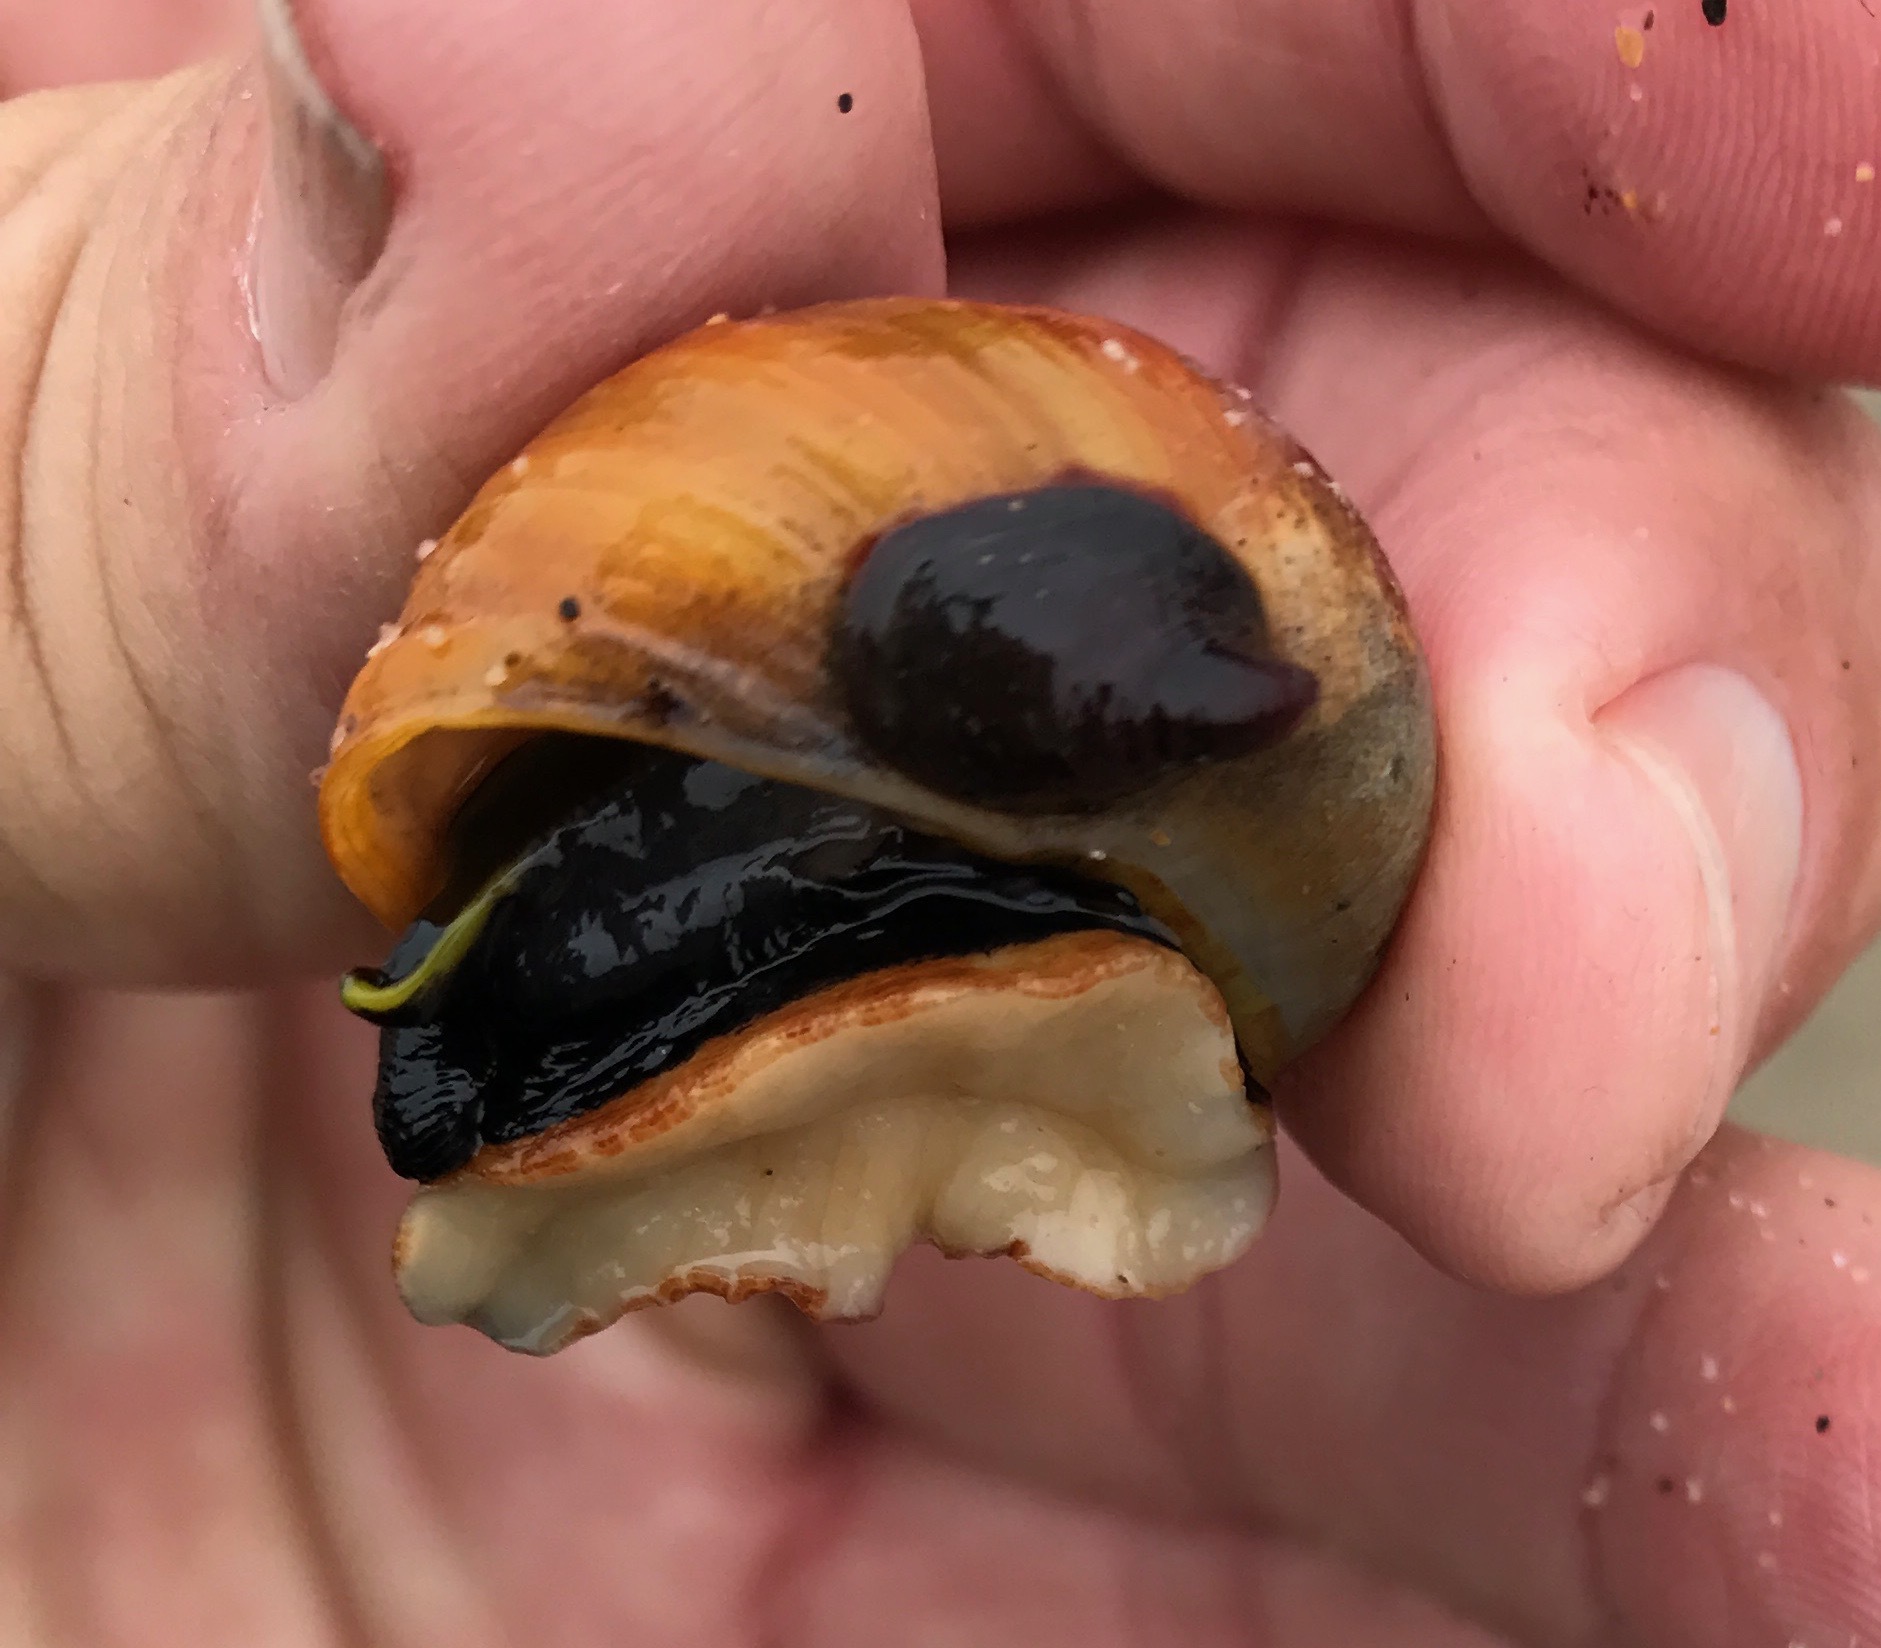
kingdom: Animalia
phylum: Mollusca
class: Gastropoda
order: Trochida
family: Tegulidae
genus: Tegula
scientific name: Tegula brunnea
